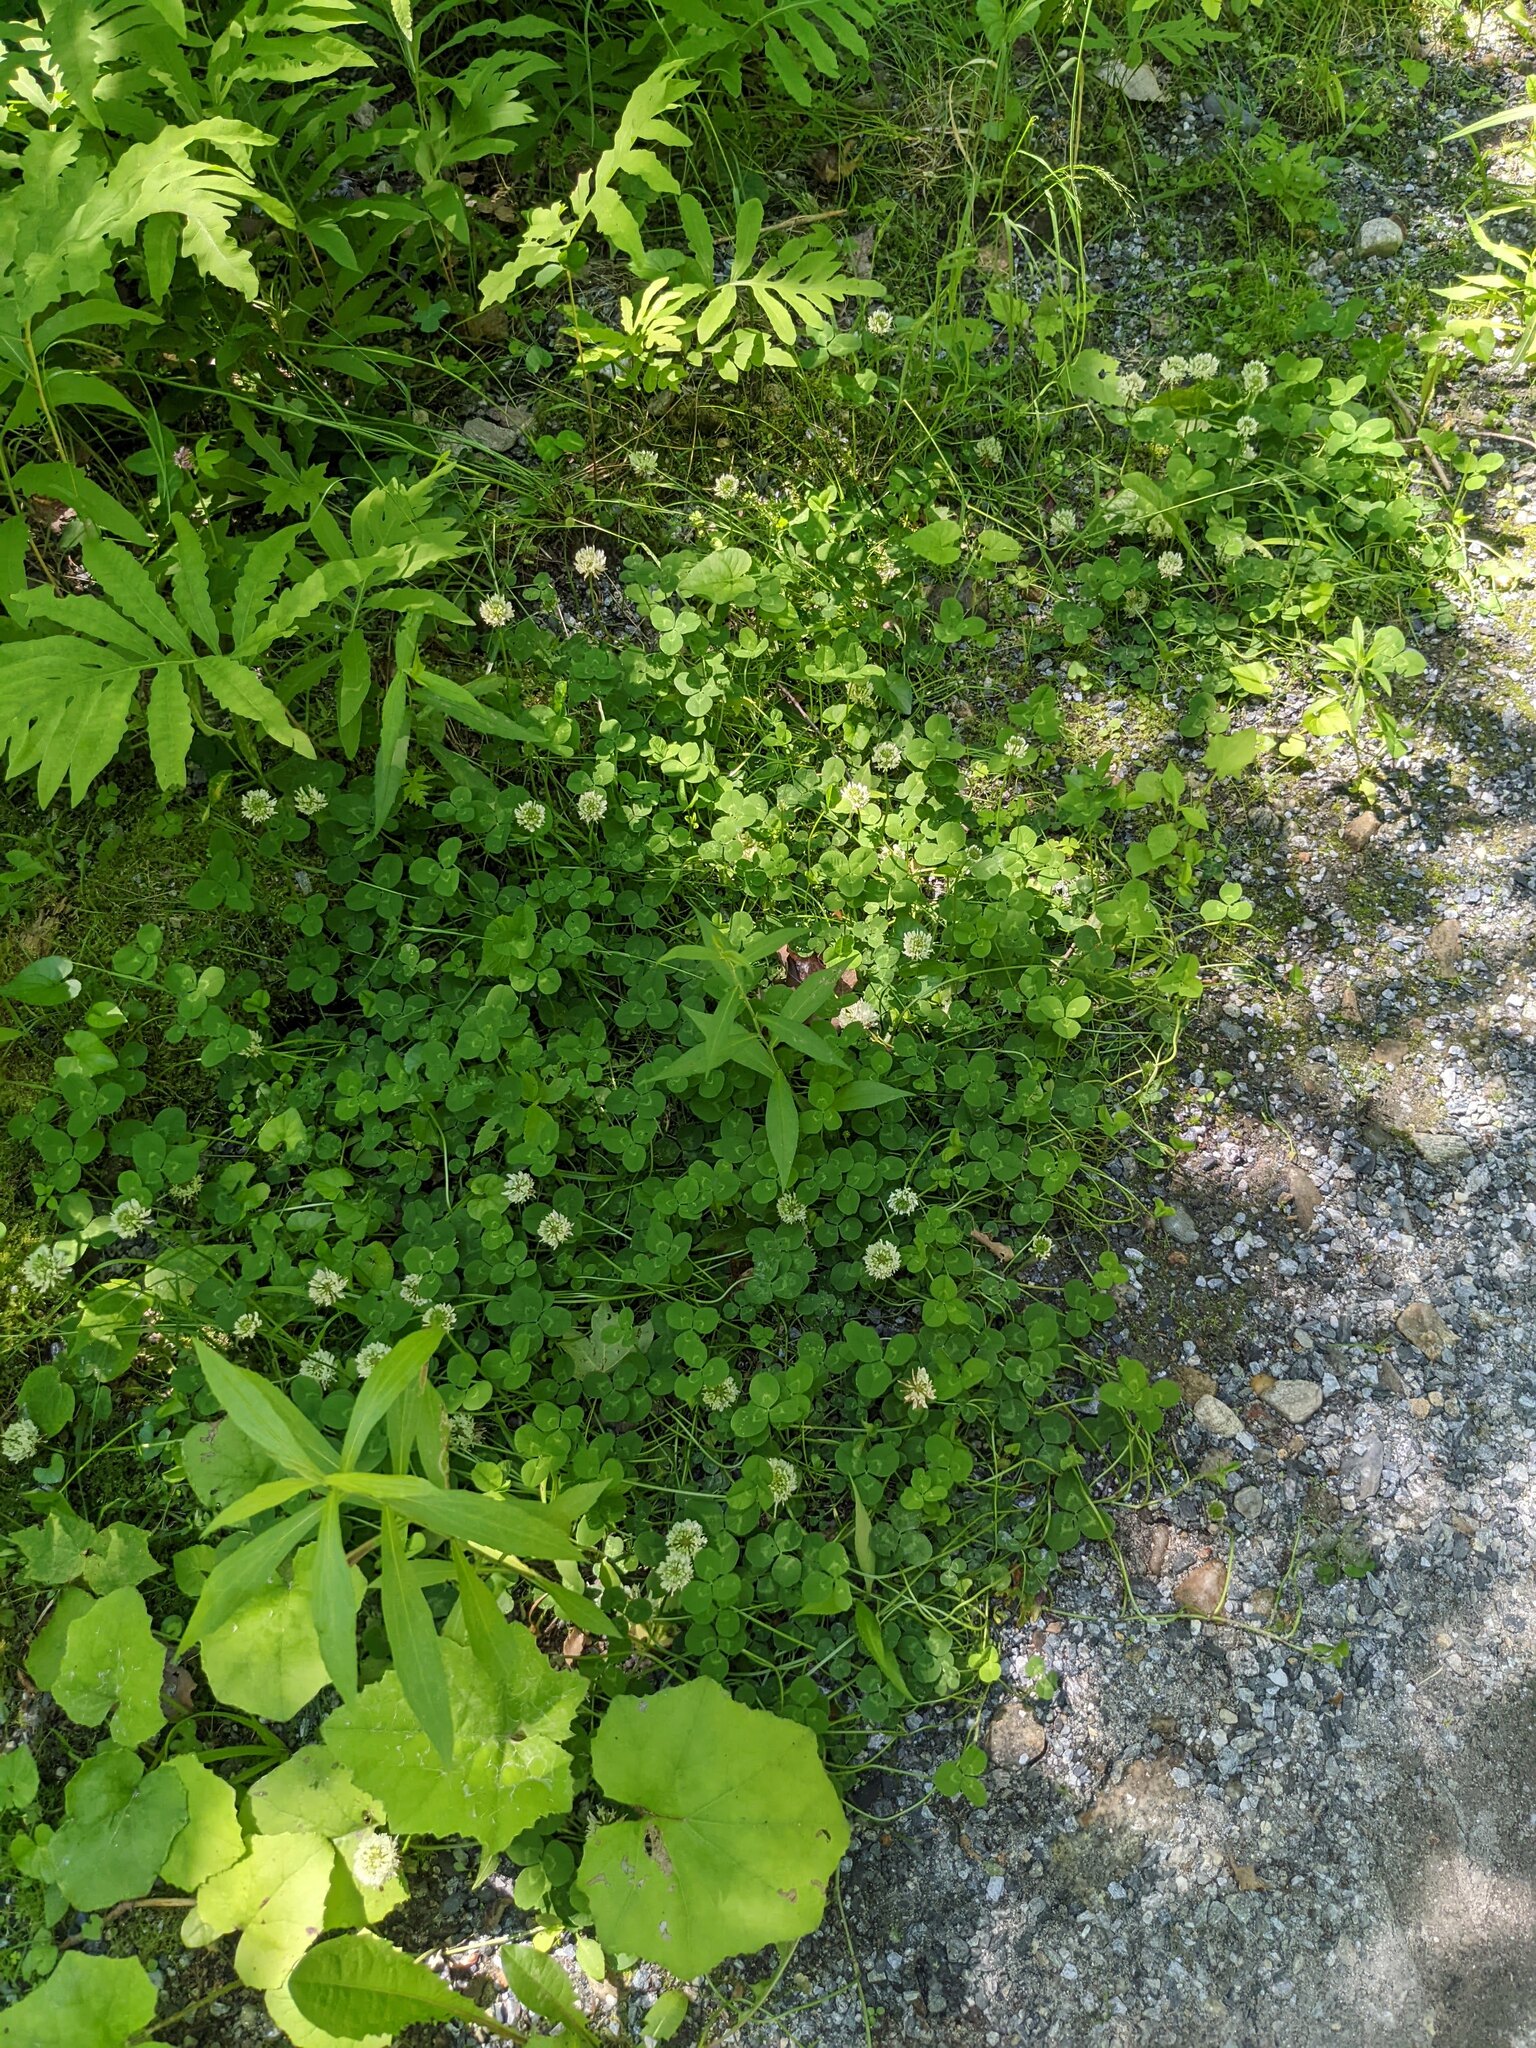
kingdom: Plantae
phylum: Tracheophyta
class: Magnoliopsida
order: Fabales
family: Fabaceae
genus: Trifolium
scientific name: Trifolium repens
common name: White clover
